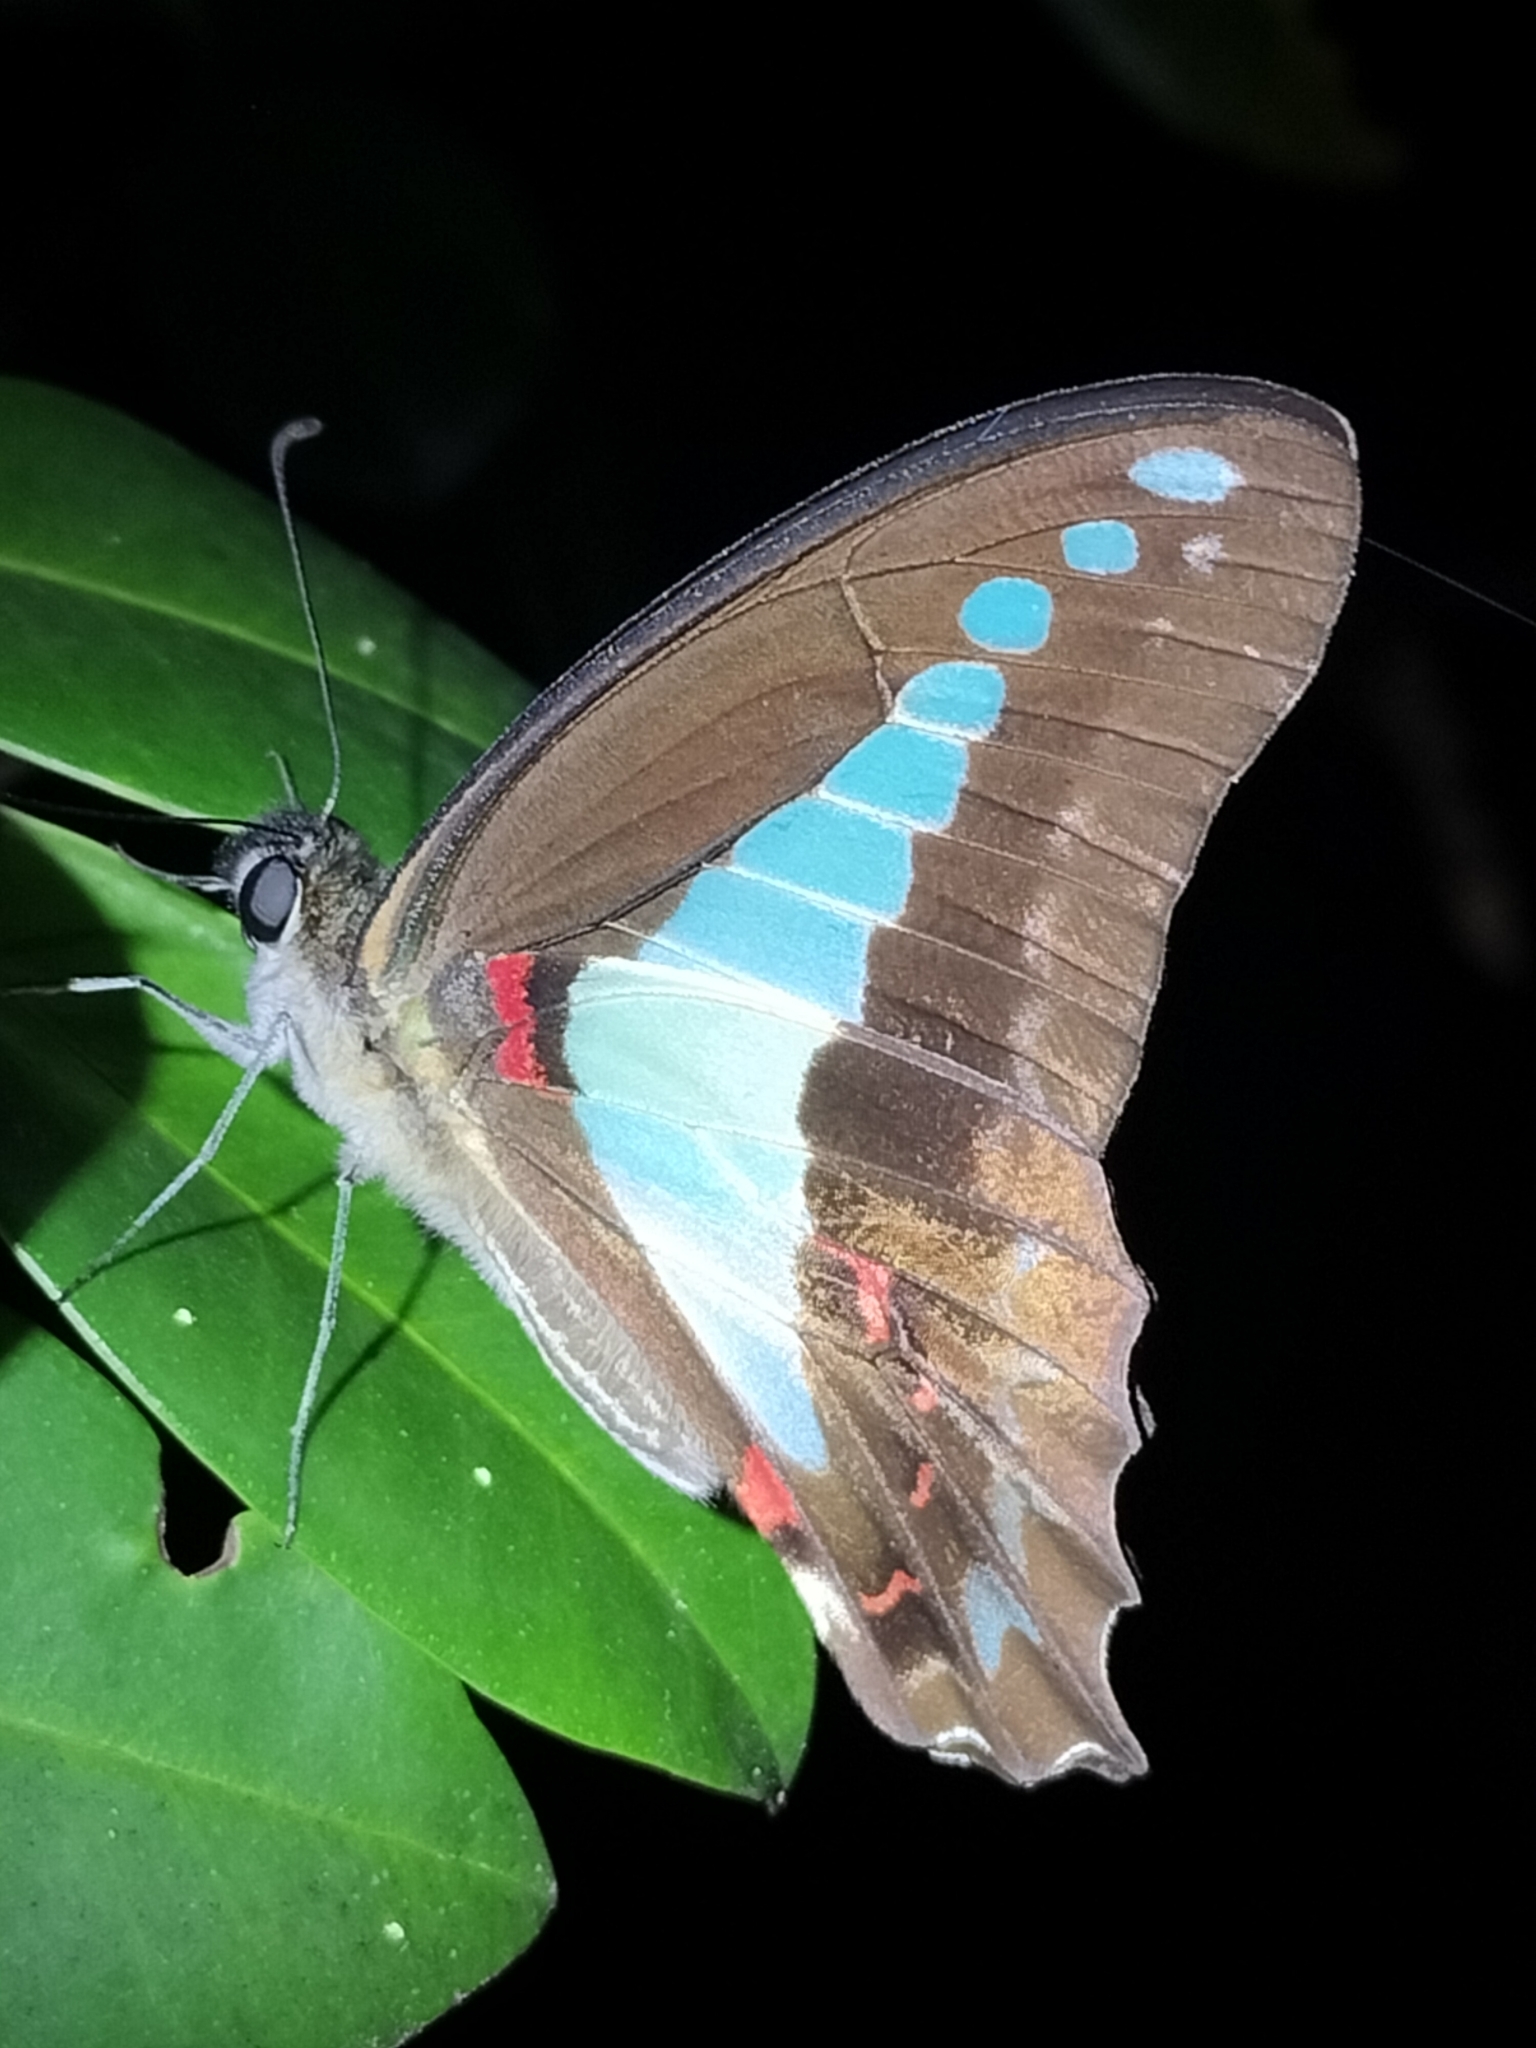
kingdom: Animalia
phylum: Arthropoda
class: Insecta
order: Lepidoptera
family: Papilionidae
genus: Graphium
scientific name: Graphium
